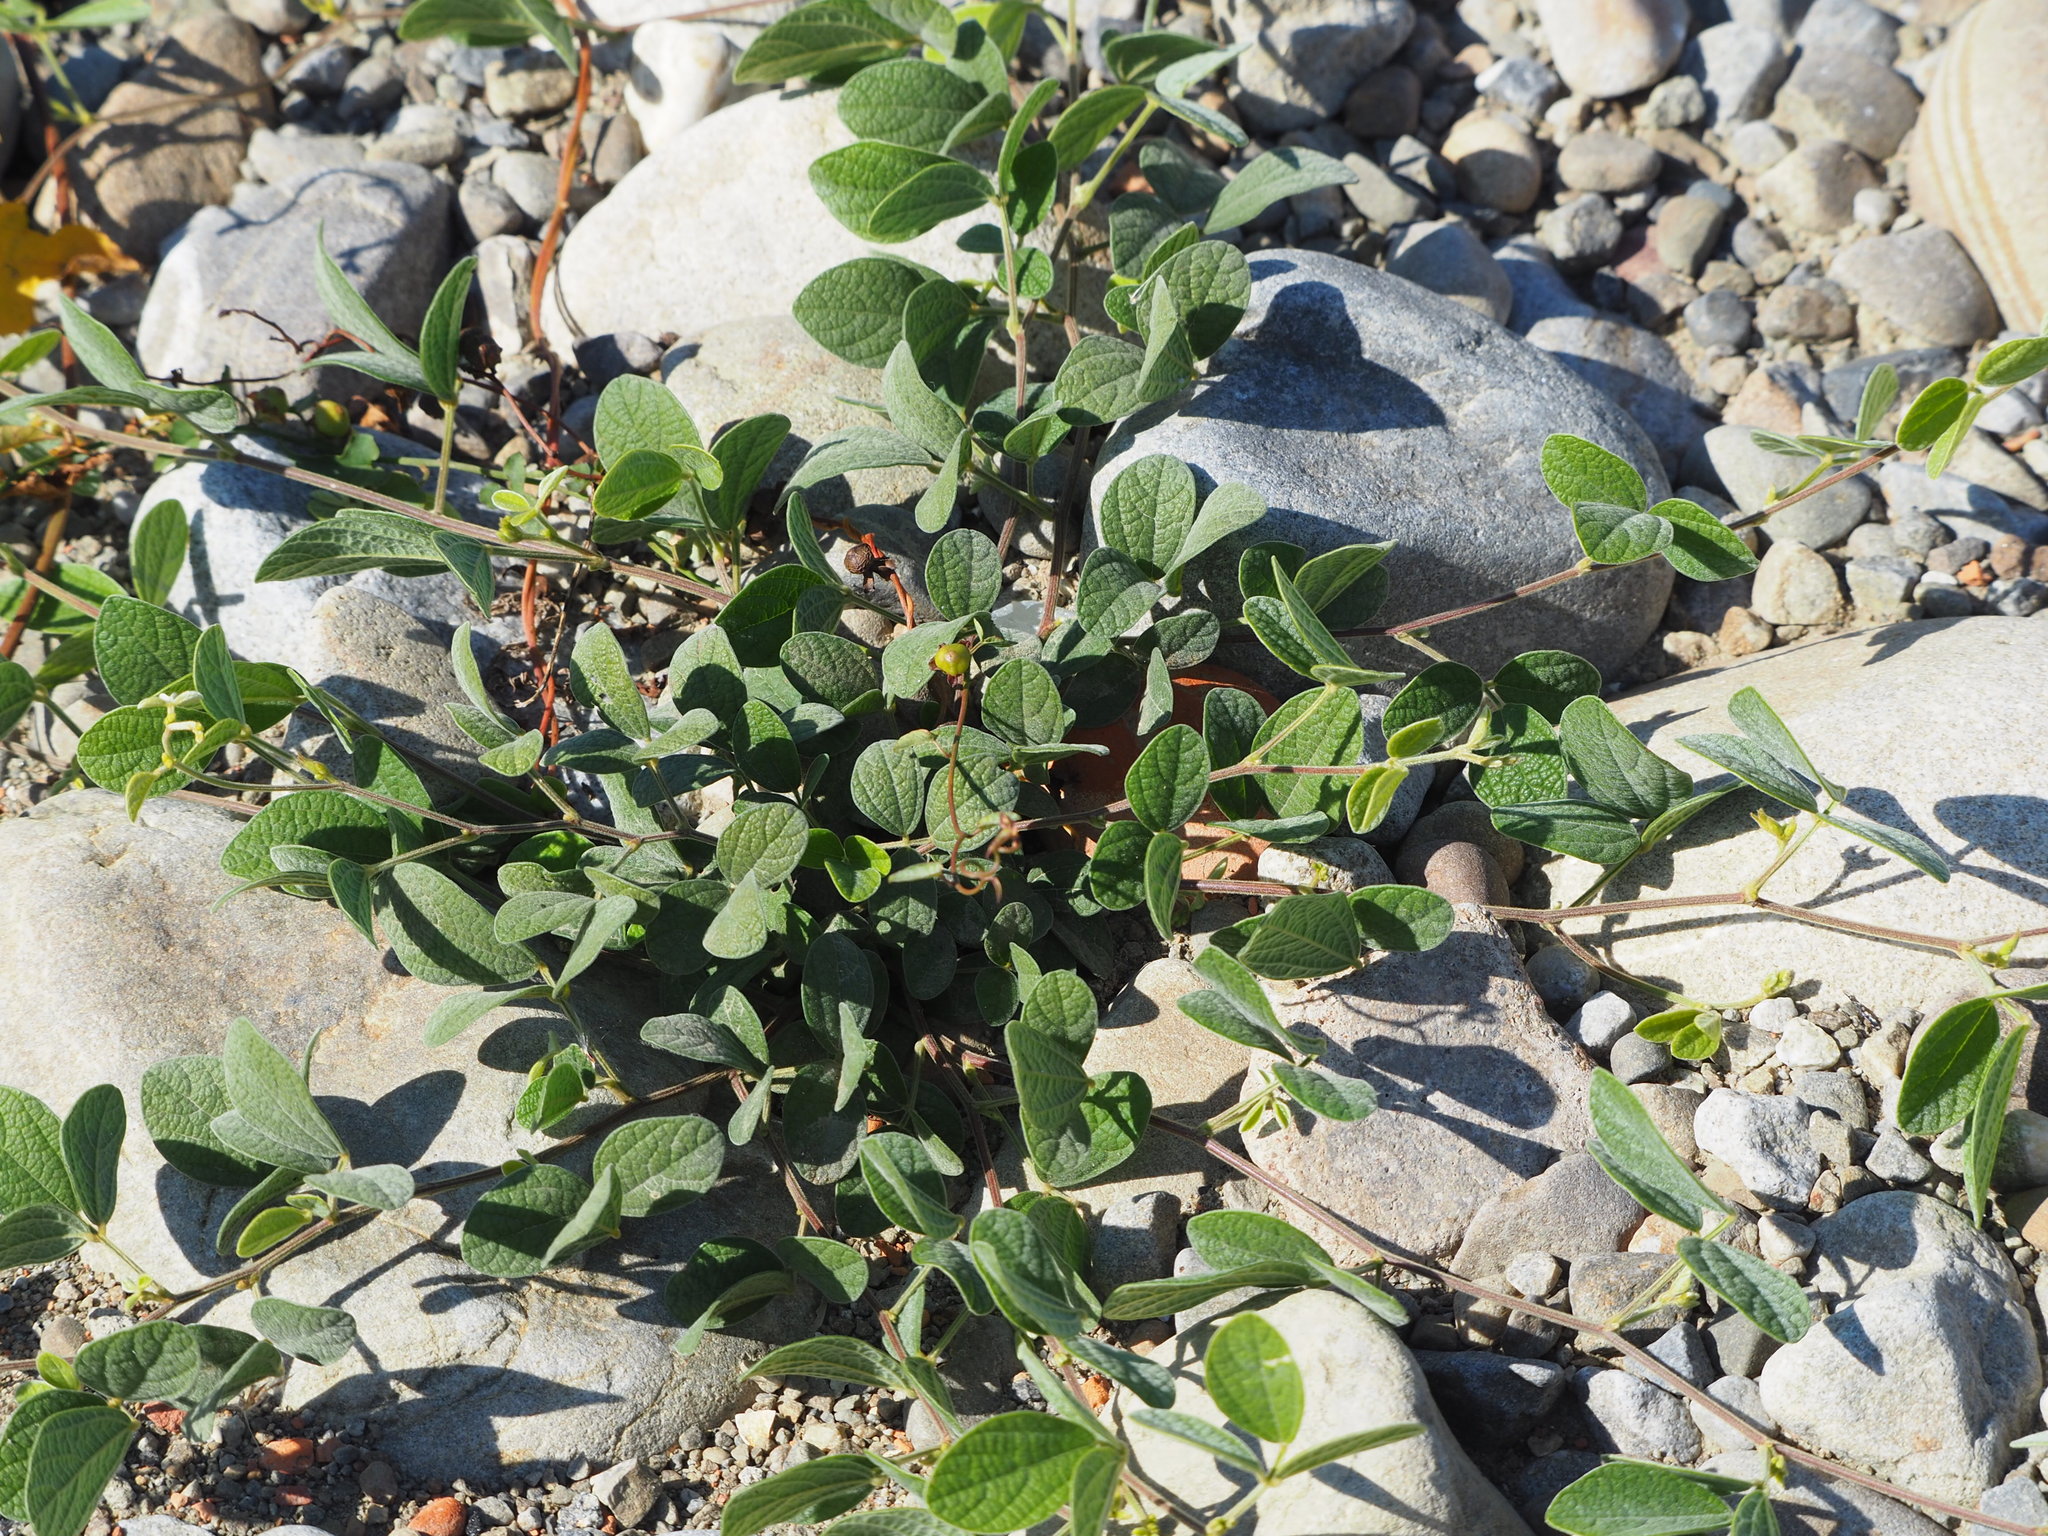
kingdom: Plantae
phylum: Tracheophyta
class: Magnoliopsida
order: Fabales
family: Fabaceae
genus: Cajanus
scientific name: Cajanus scarabaeoides
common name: Showy pigeonpea
